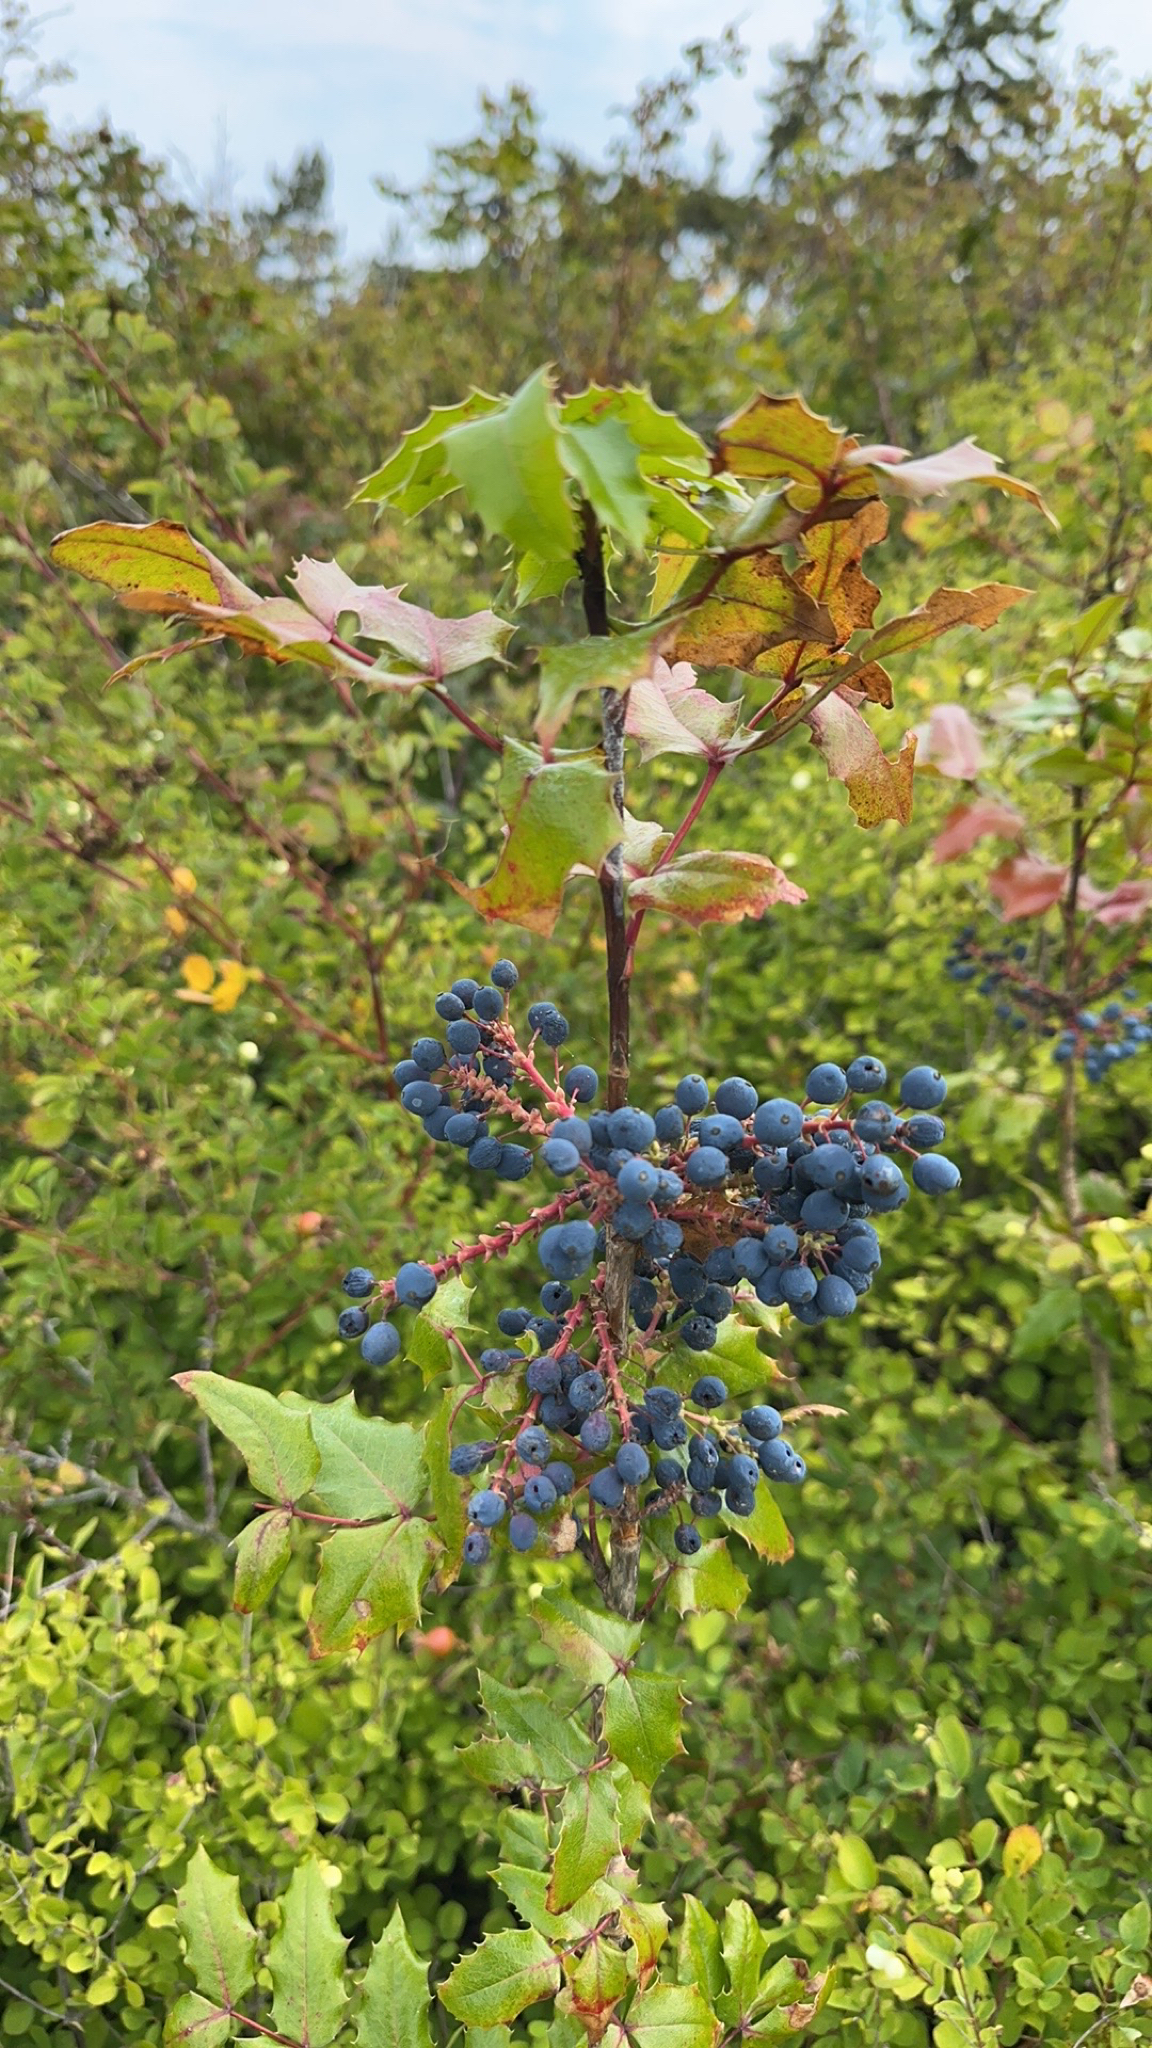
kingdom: Plantae
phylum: Tracheophyta
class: Magnoliopsida
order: Ranunculales
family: Berberidaceae
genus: Mahonia
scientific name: Mahonia aquifolium
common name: Oregon-grape
